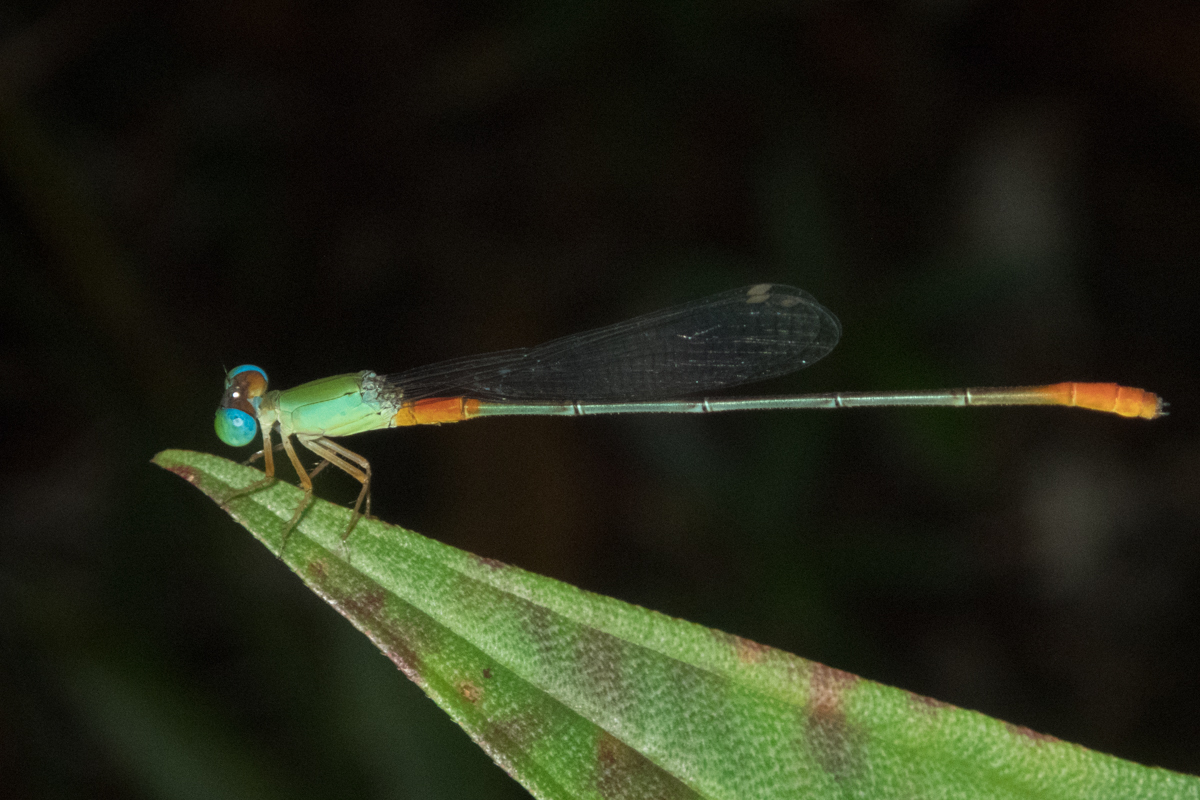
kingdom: Animalia
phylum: Arthropoda
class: Insecta
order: Odonata
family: Coenagrionidae
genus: Ceriagrion
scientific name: Ceriagrion cerinorubellum
